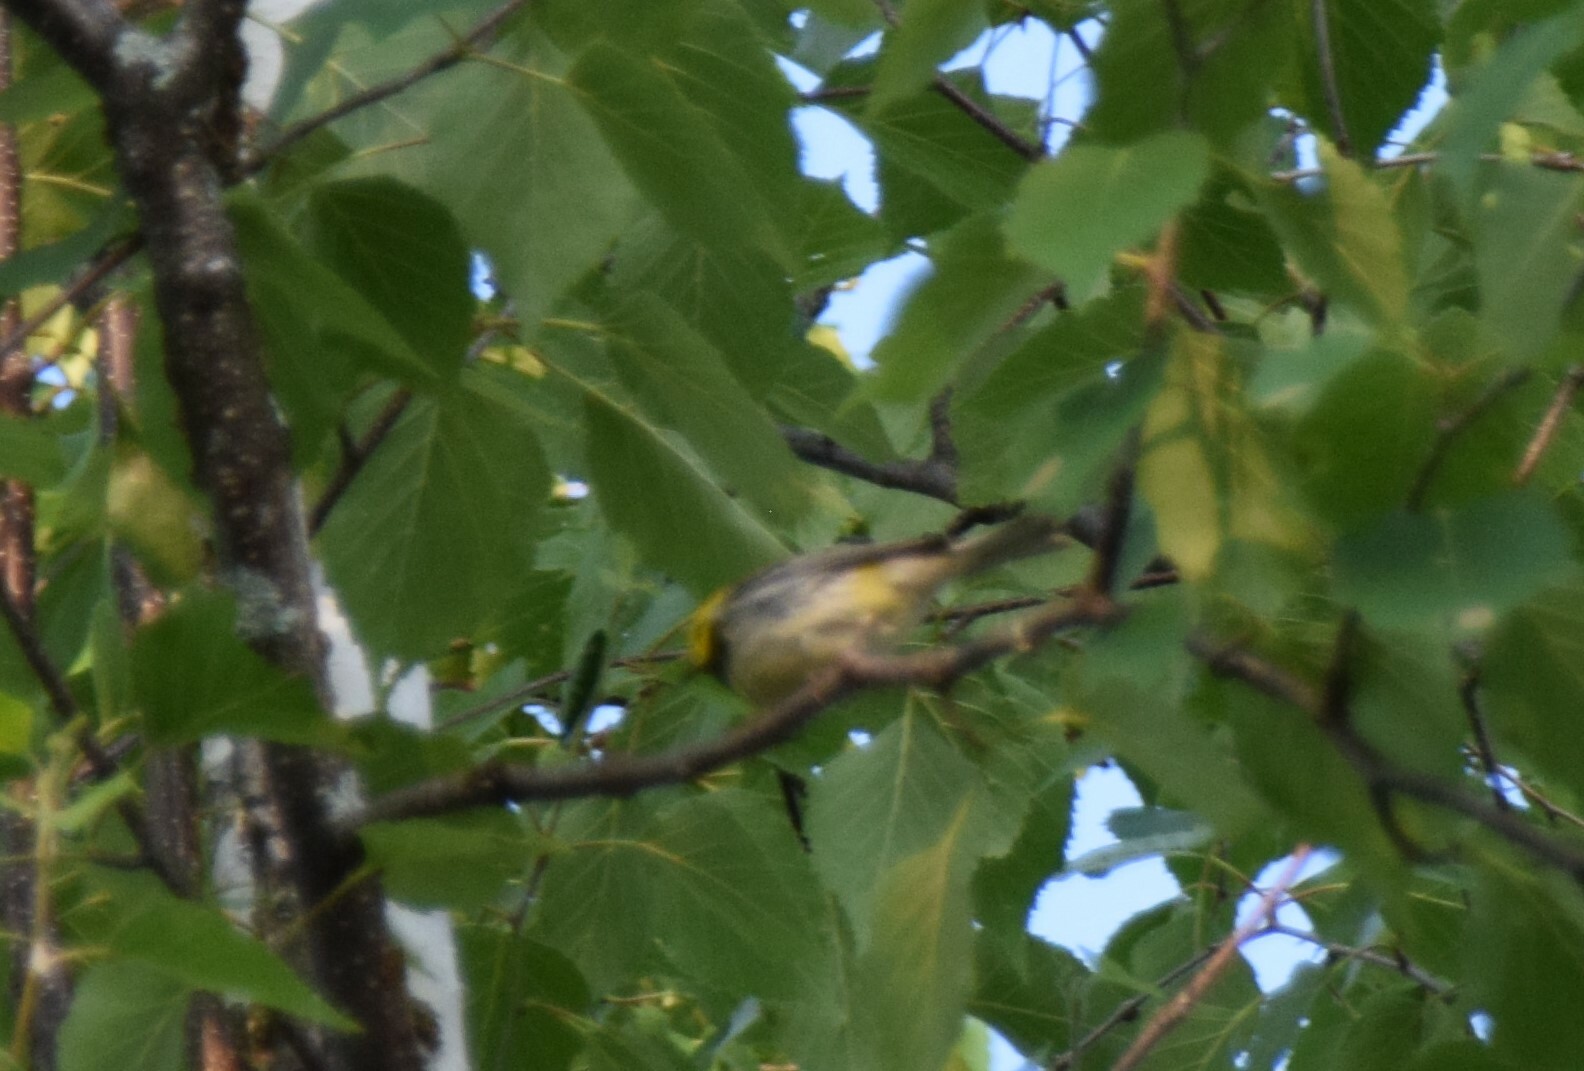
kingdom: Animalia
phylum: Chordata
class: Aves
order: Passeriformes
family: Parulidae
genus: Setophaga
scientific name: Setophaga virens
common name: Black-throated green warbler
